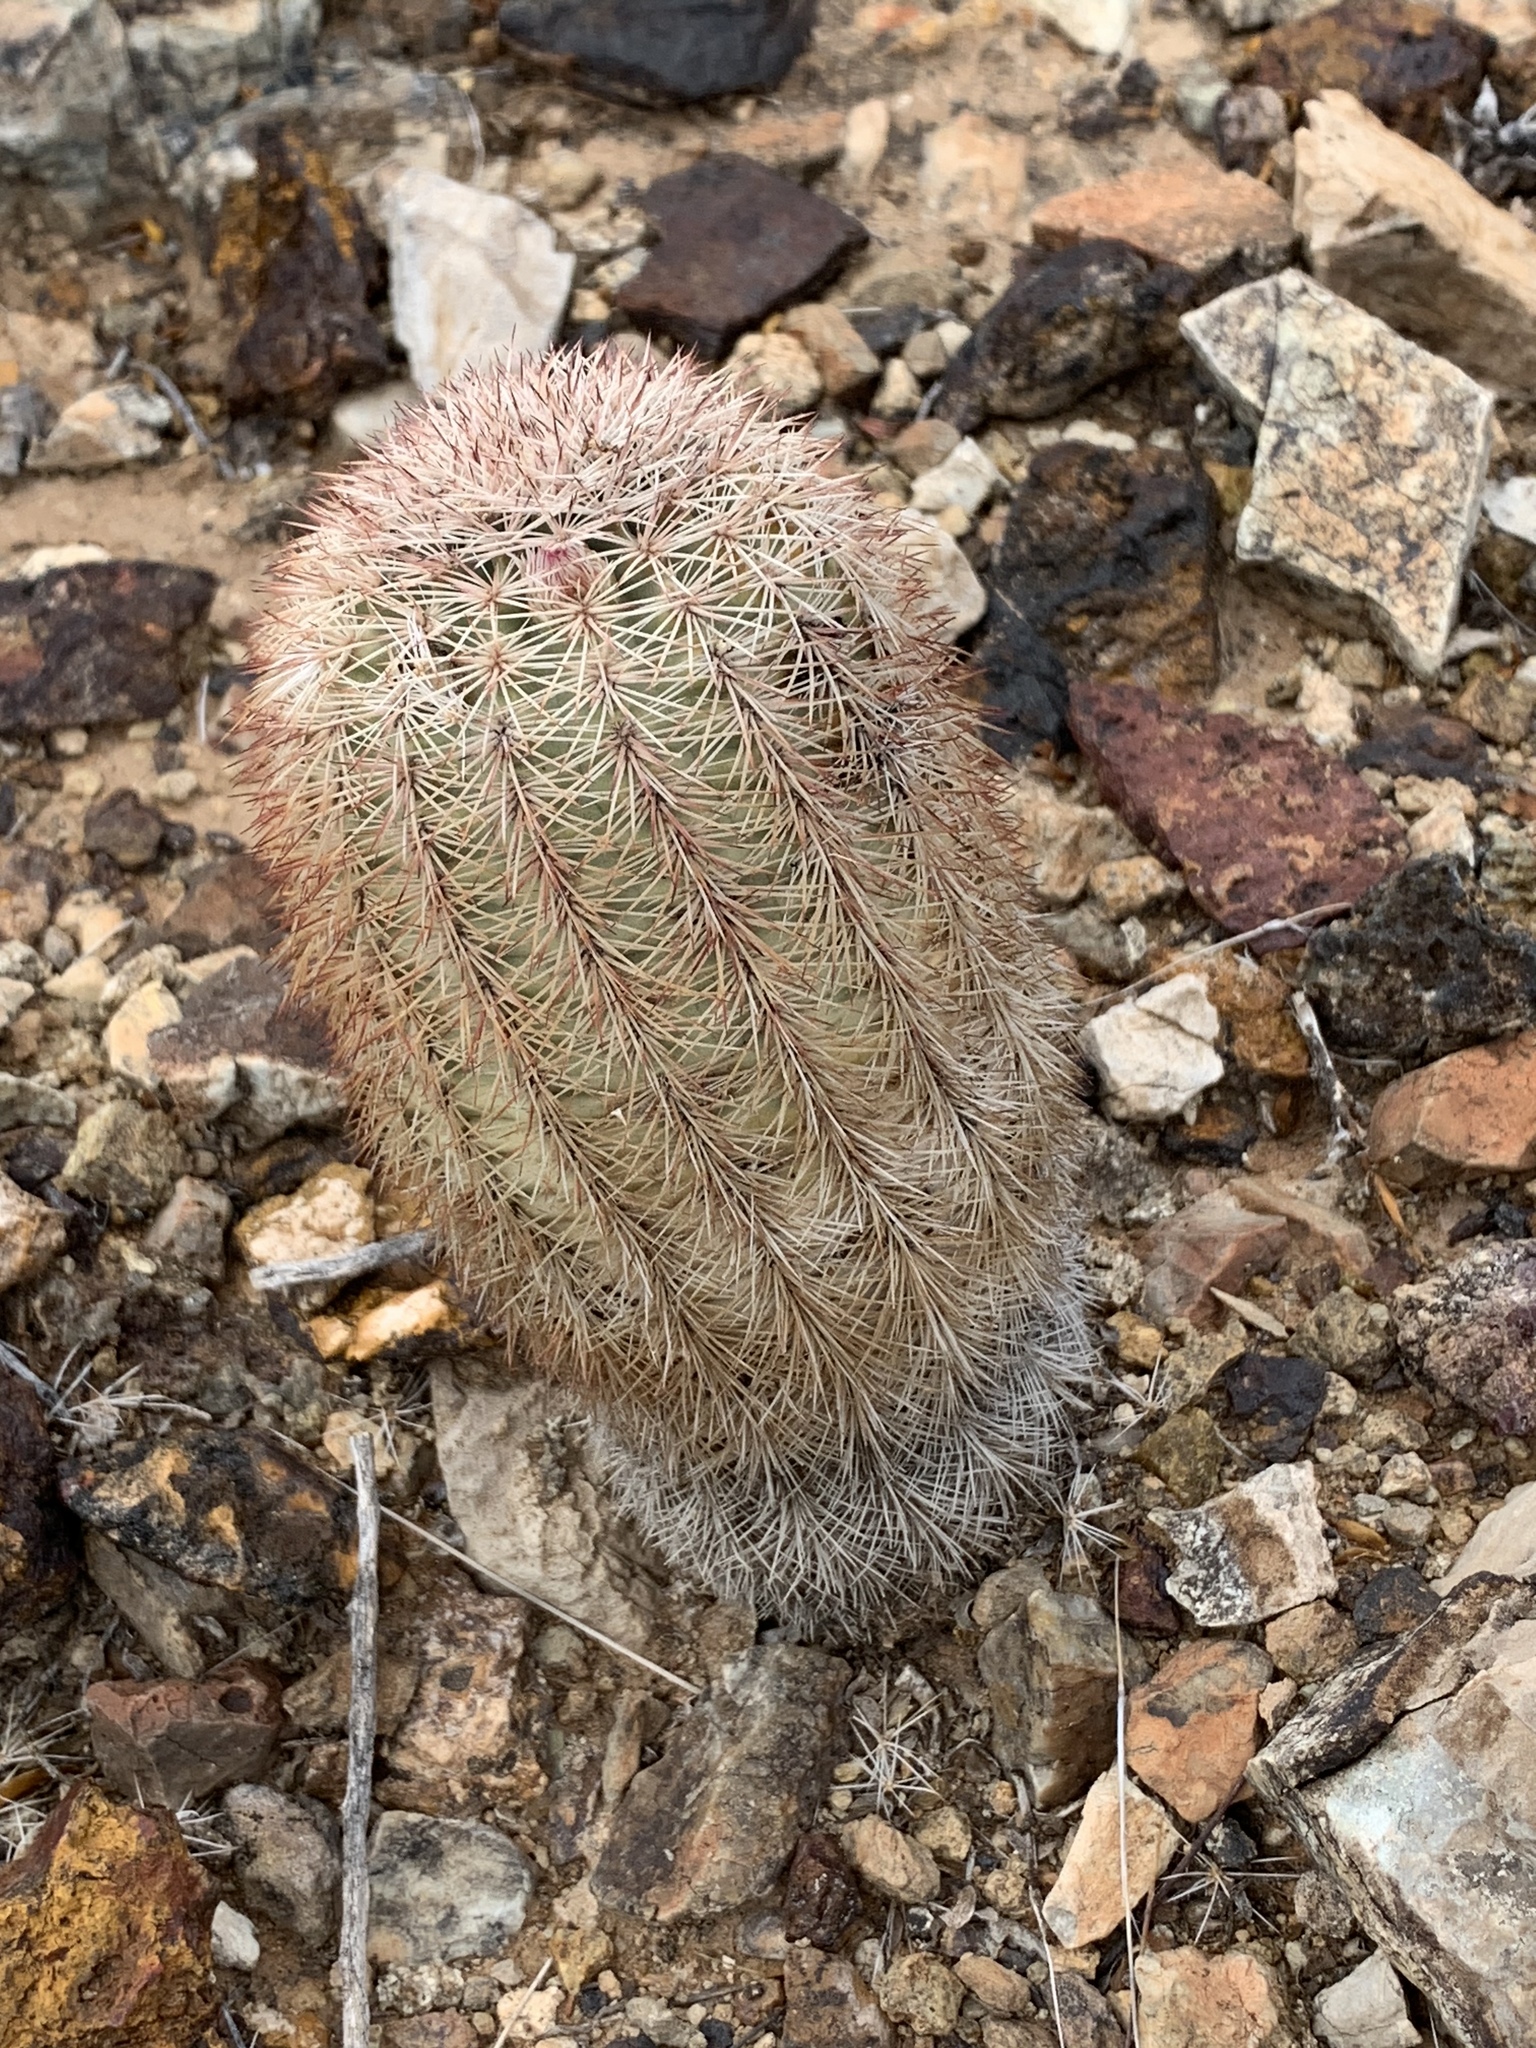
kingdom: Plantae
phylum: Tracheophyta
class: Magnoliopsida
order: Caryophyllales
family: Cactaceae
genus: Echinocereus
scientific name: Echinocereus dasyacanthus
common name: Spiny hedgehog cactus
